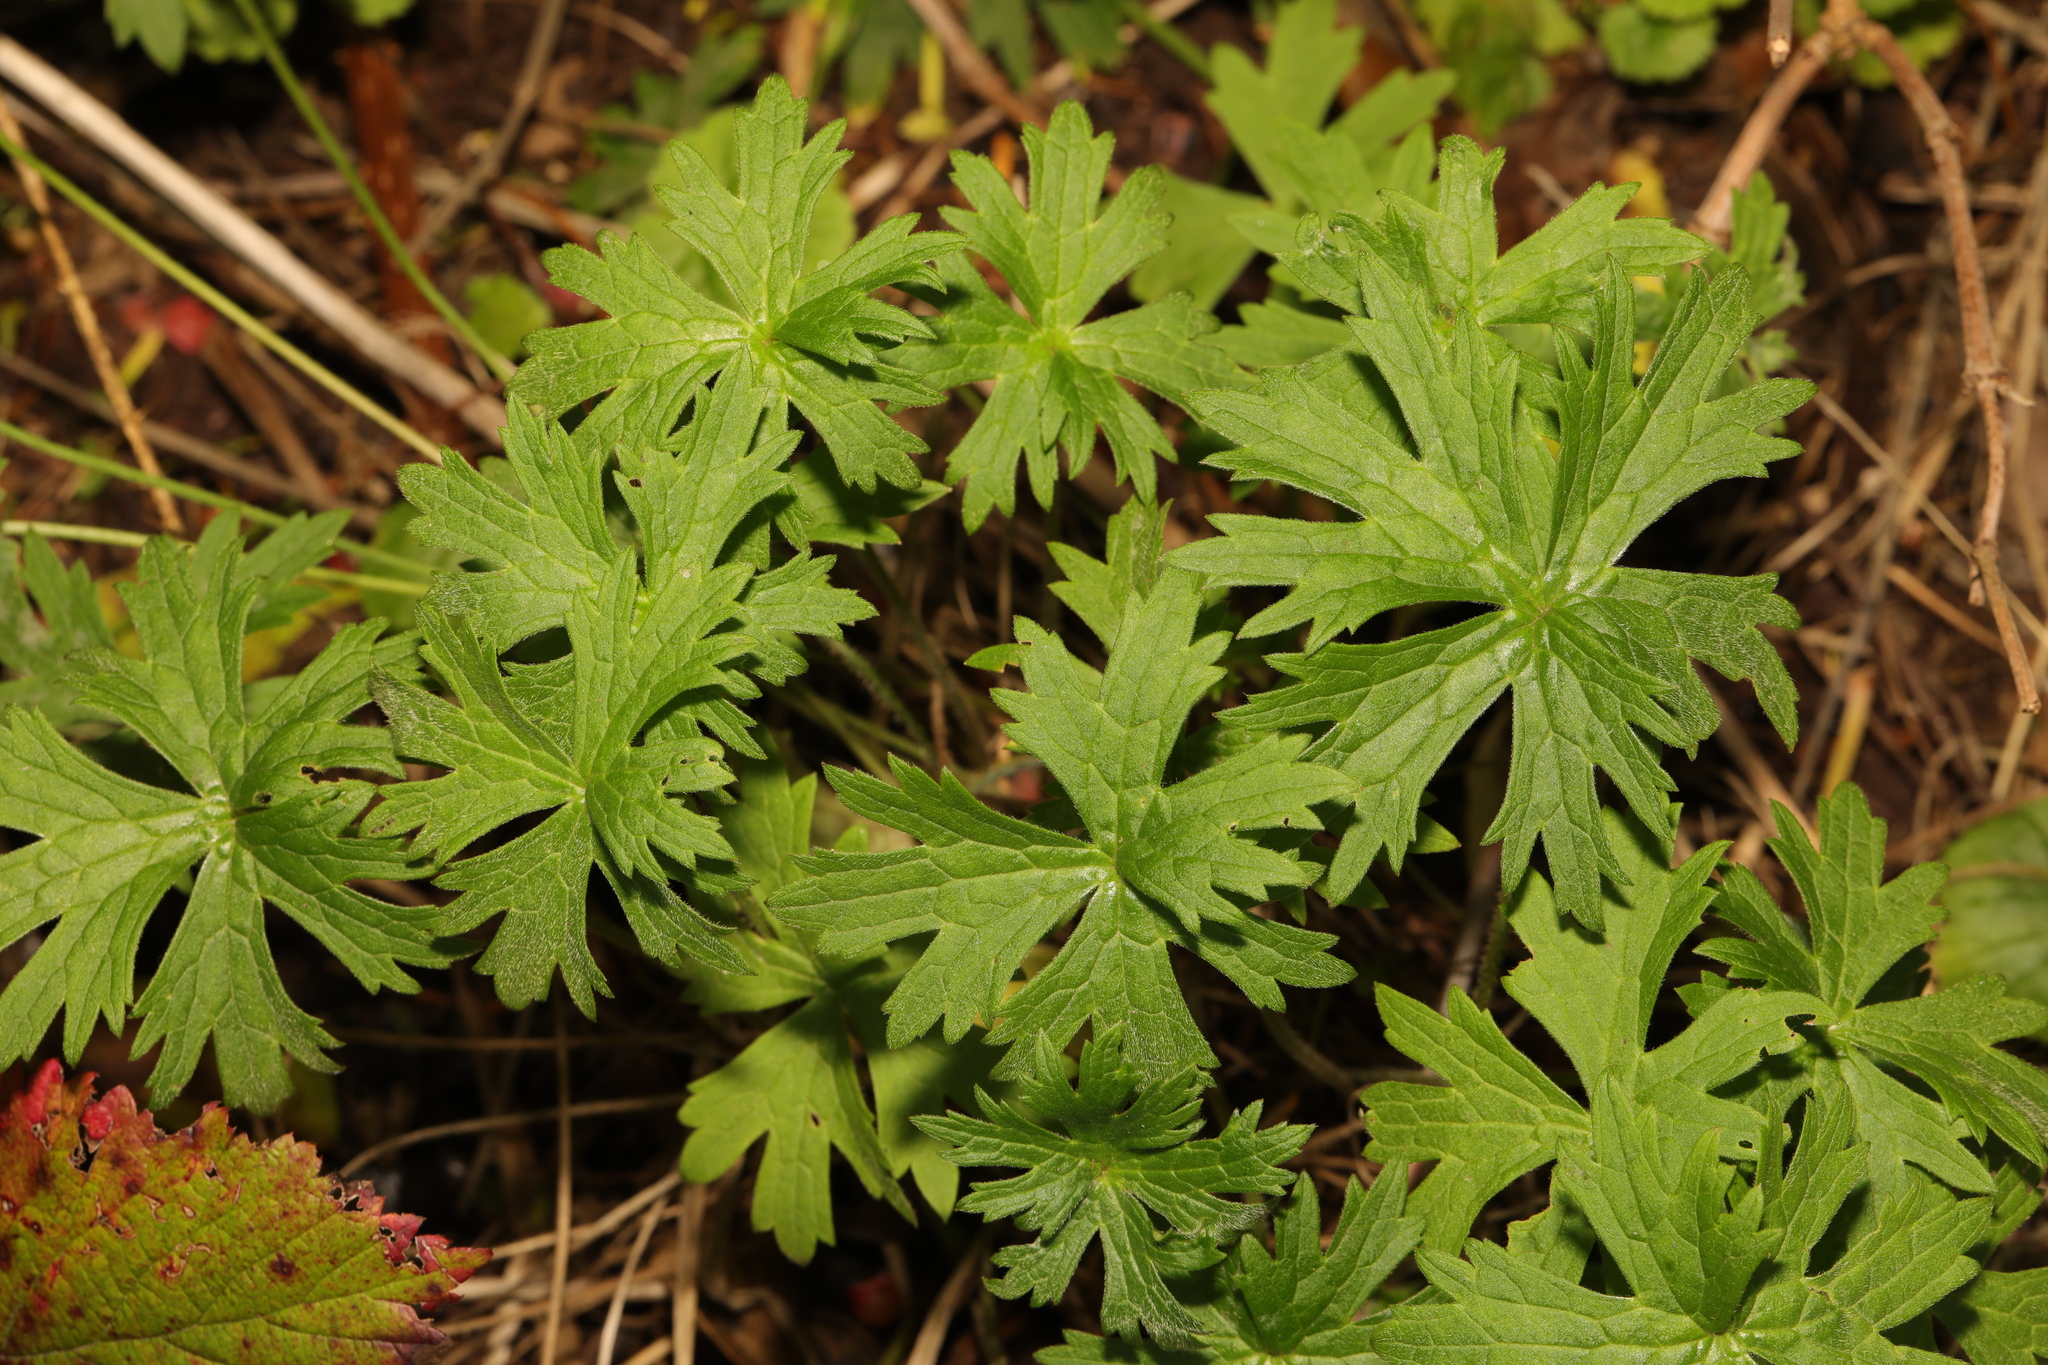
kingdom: Plantae
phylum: Tracheophyta
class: Magnoliopsida
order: Ranunculales
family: Ranunculaceae
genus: Ranunculus
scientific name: Ranunculus acris
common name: Meadow buttercup
